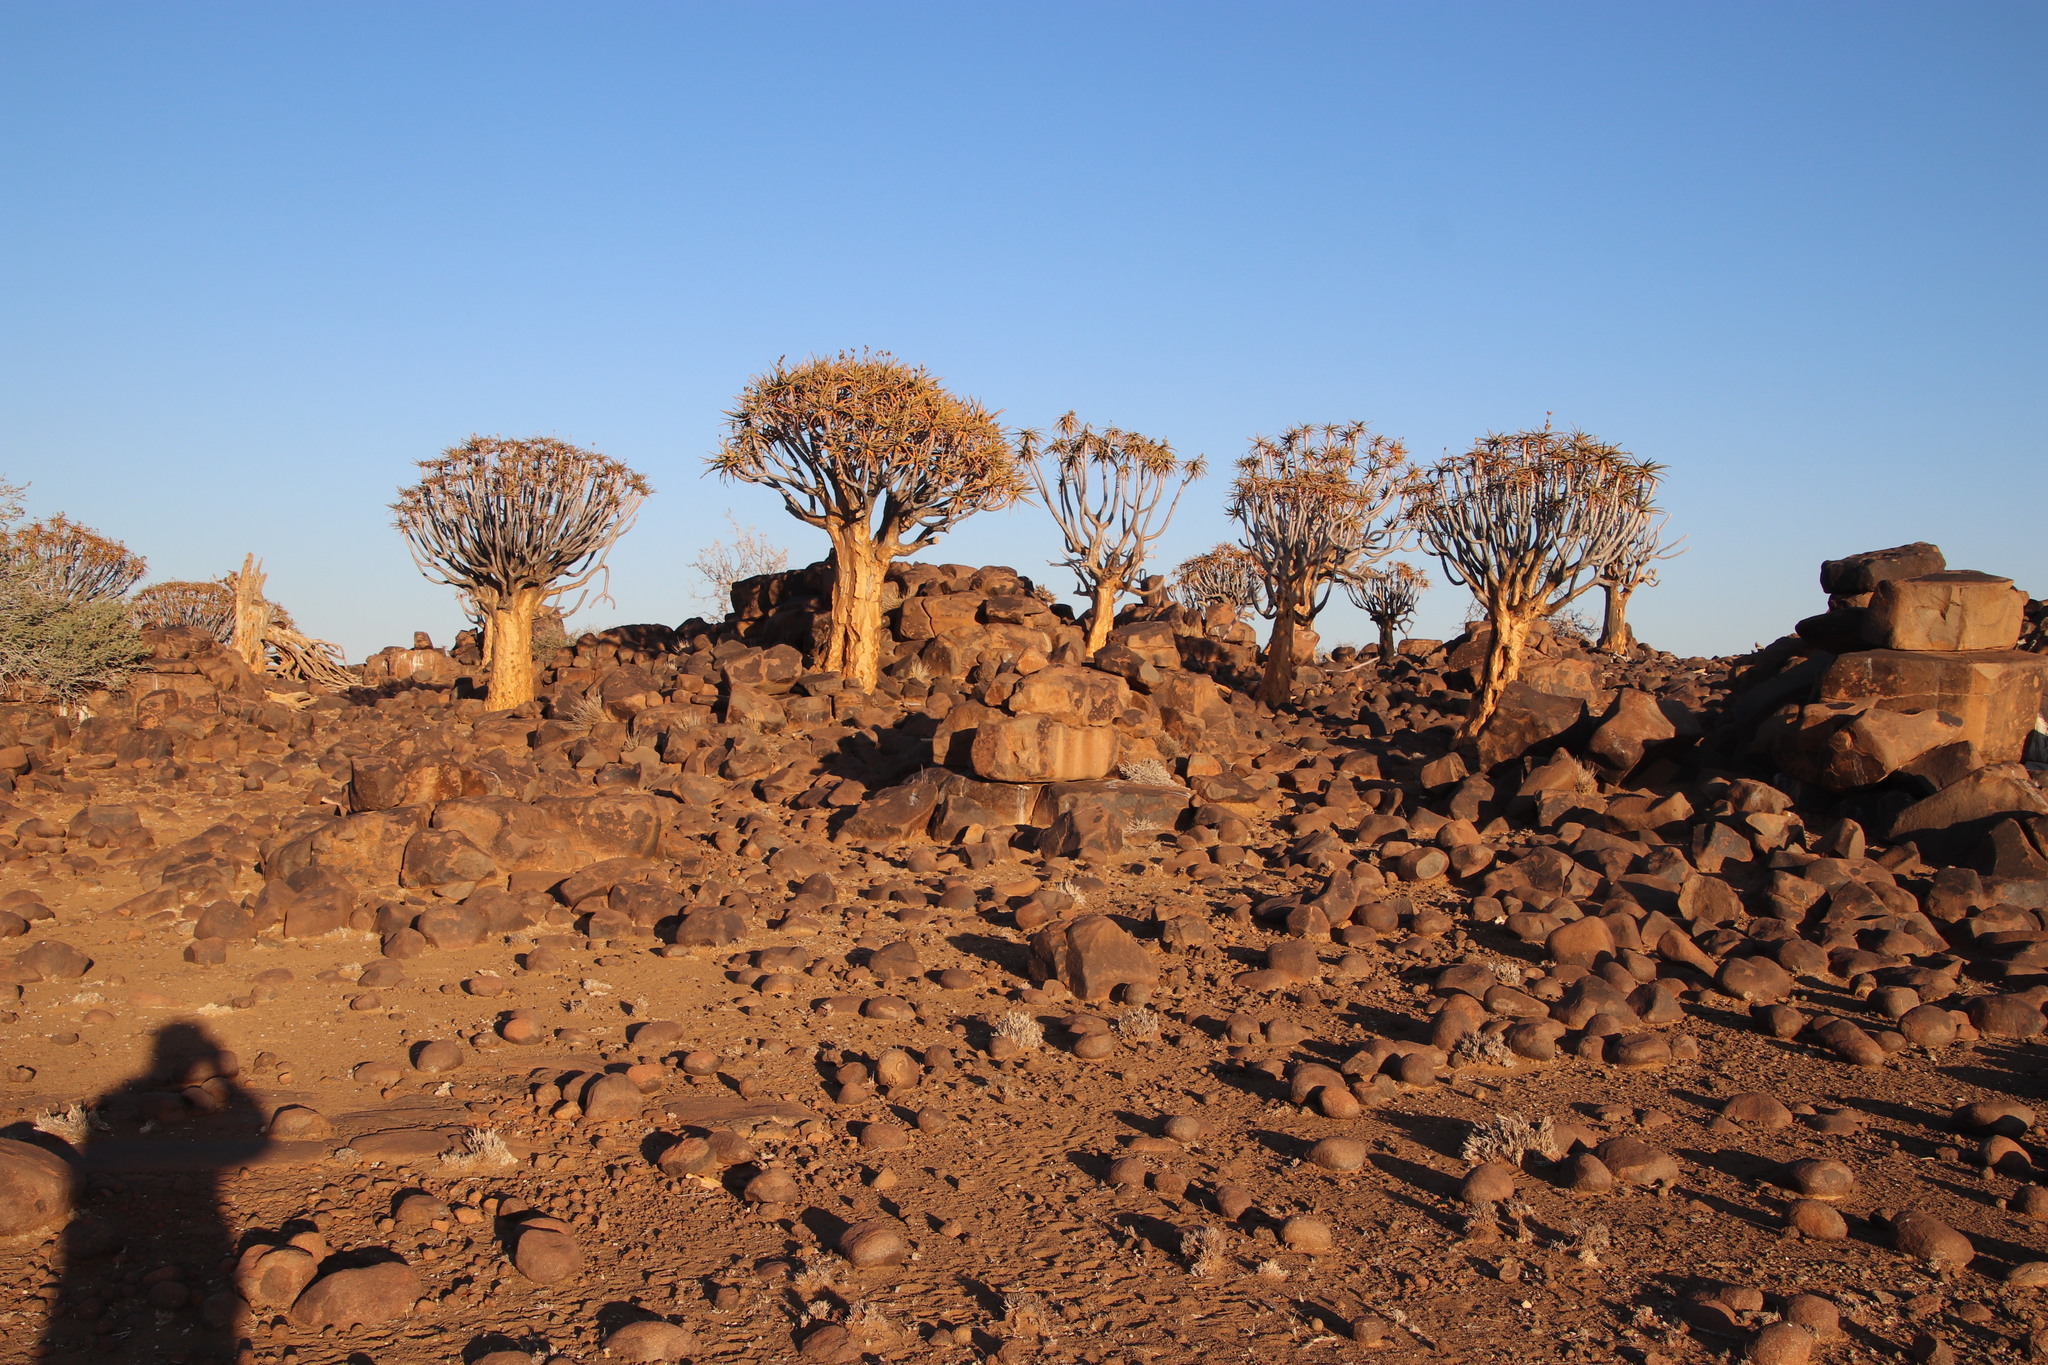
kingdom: Plantae
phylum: Tracheophyta
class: Liliopsida
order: Asparagales
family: Asphodelaceae
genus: Aloidendron
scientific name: Aloidendron dichotomum
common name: Quiver tree
